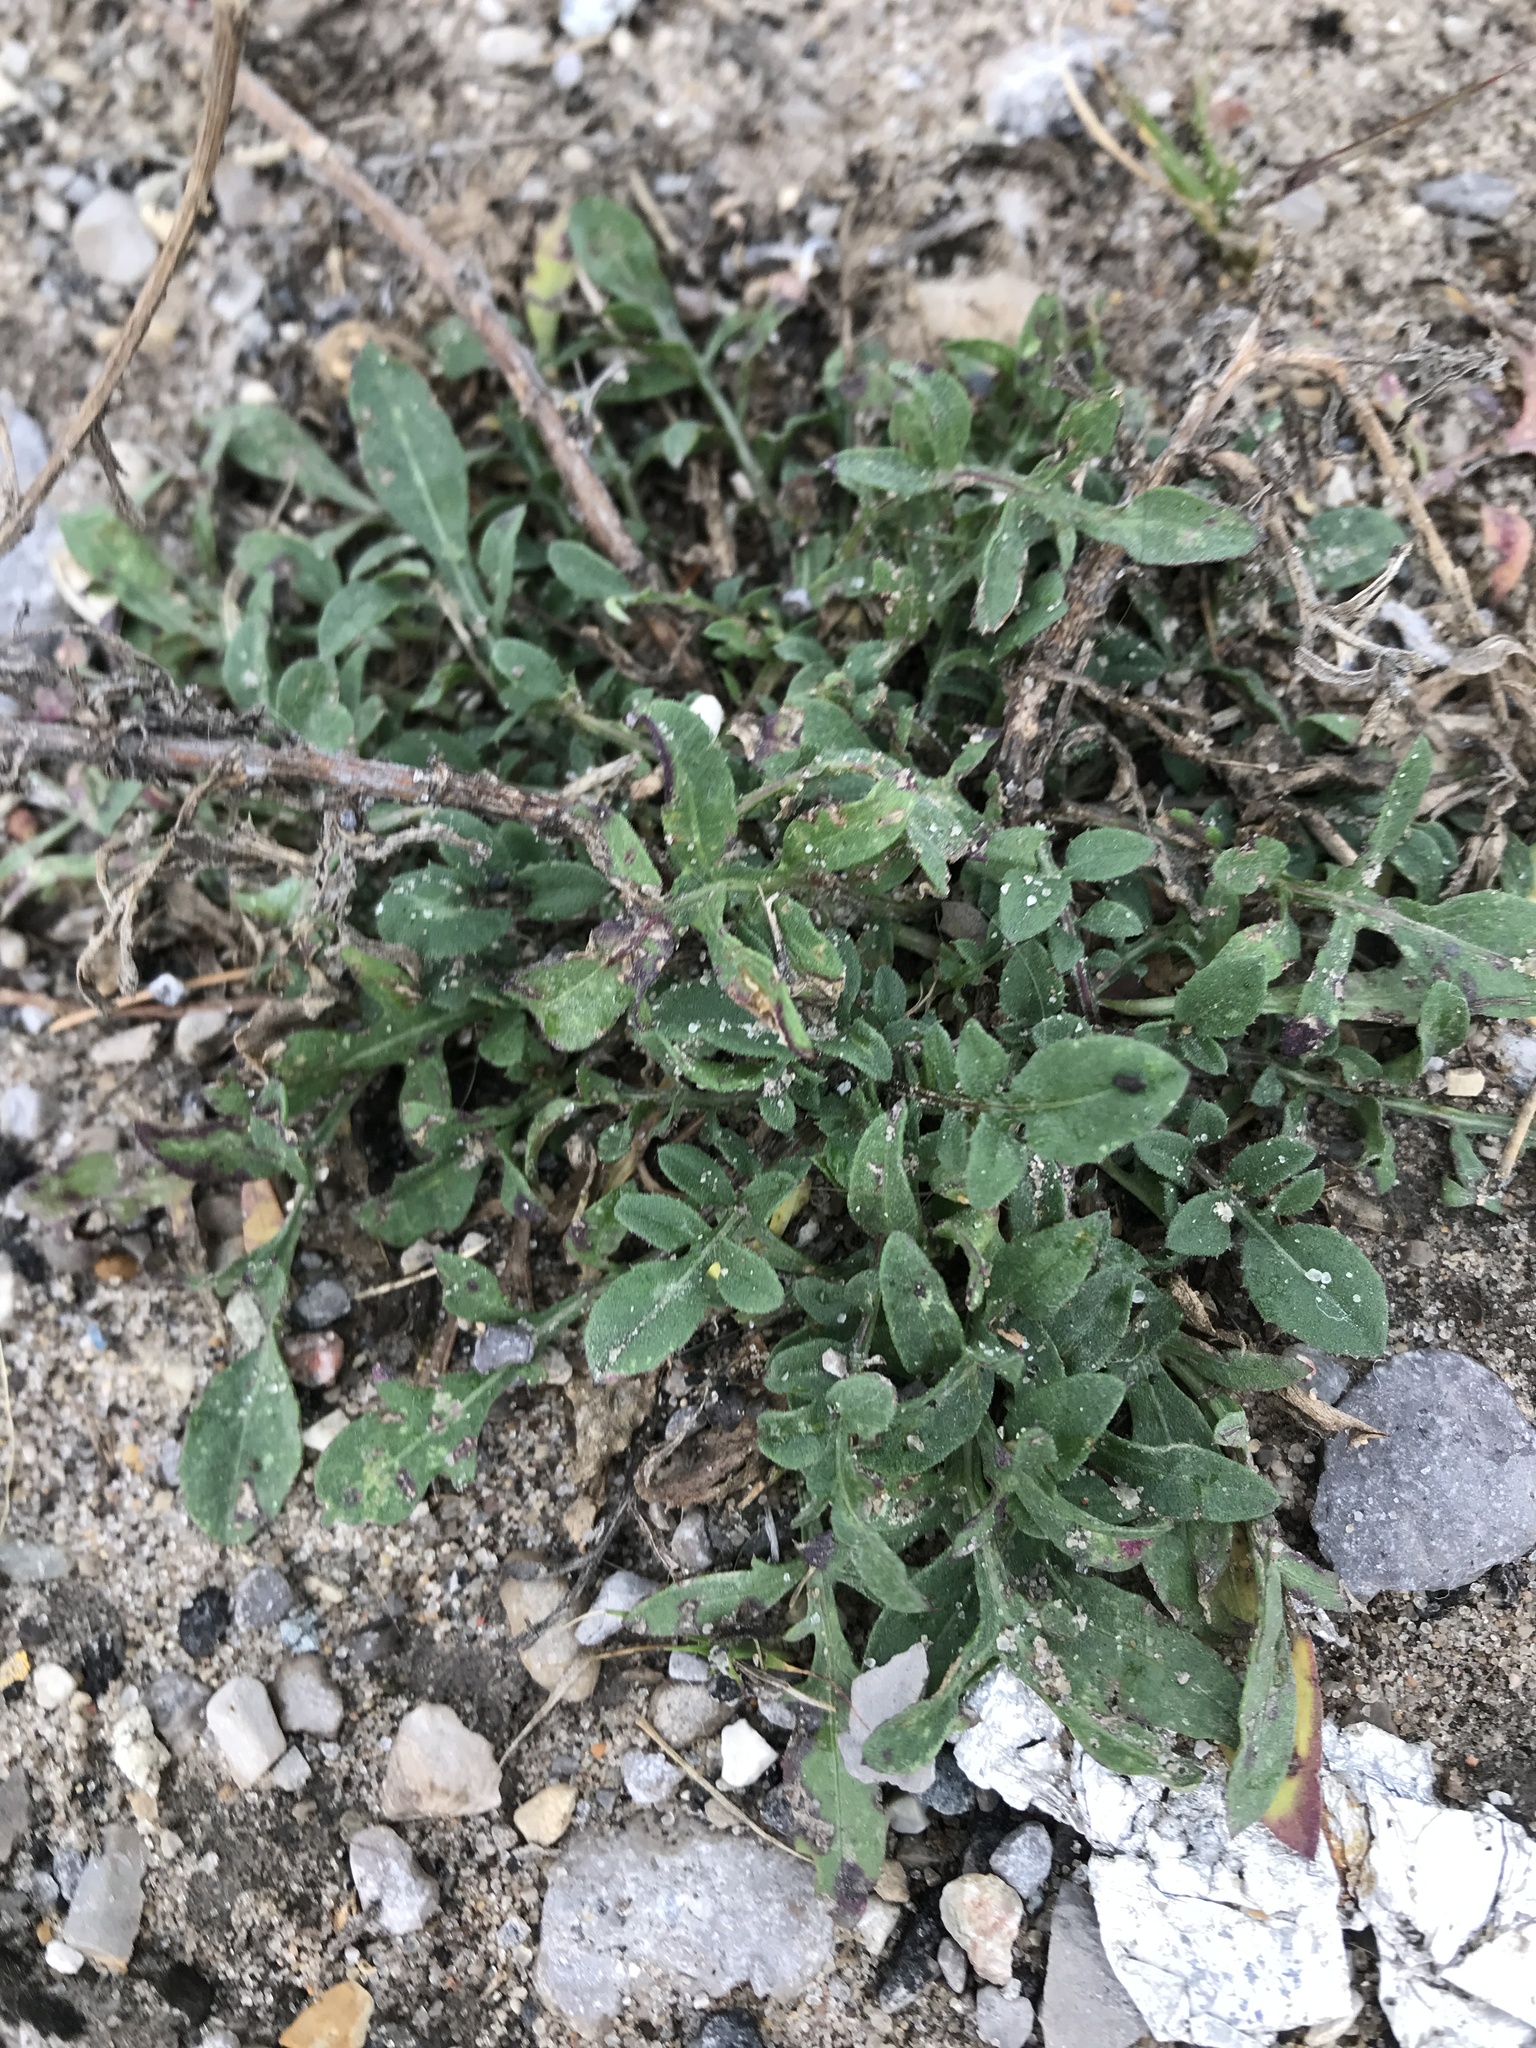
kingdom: Plantae
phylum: Tracheophyta
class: Magnoliopsida
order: Asterales
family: Asteraceae
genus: Centaurea
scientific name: Centaurea stoebe
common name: Spotted knapweed
